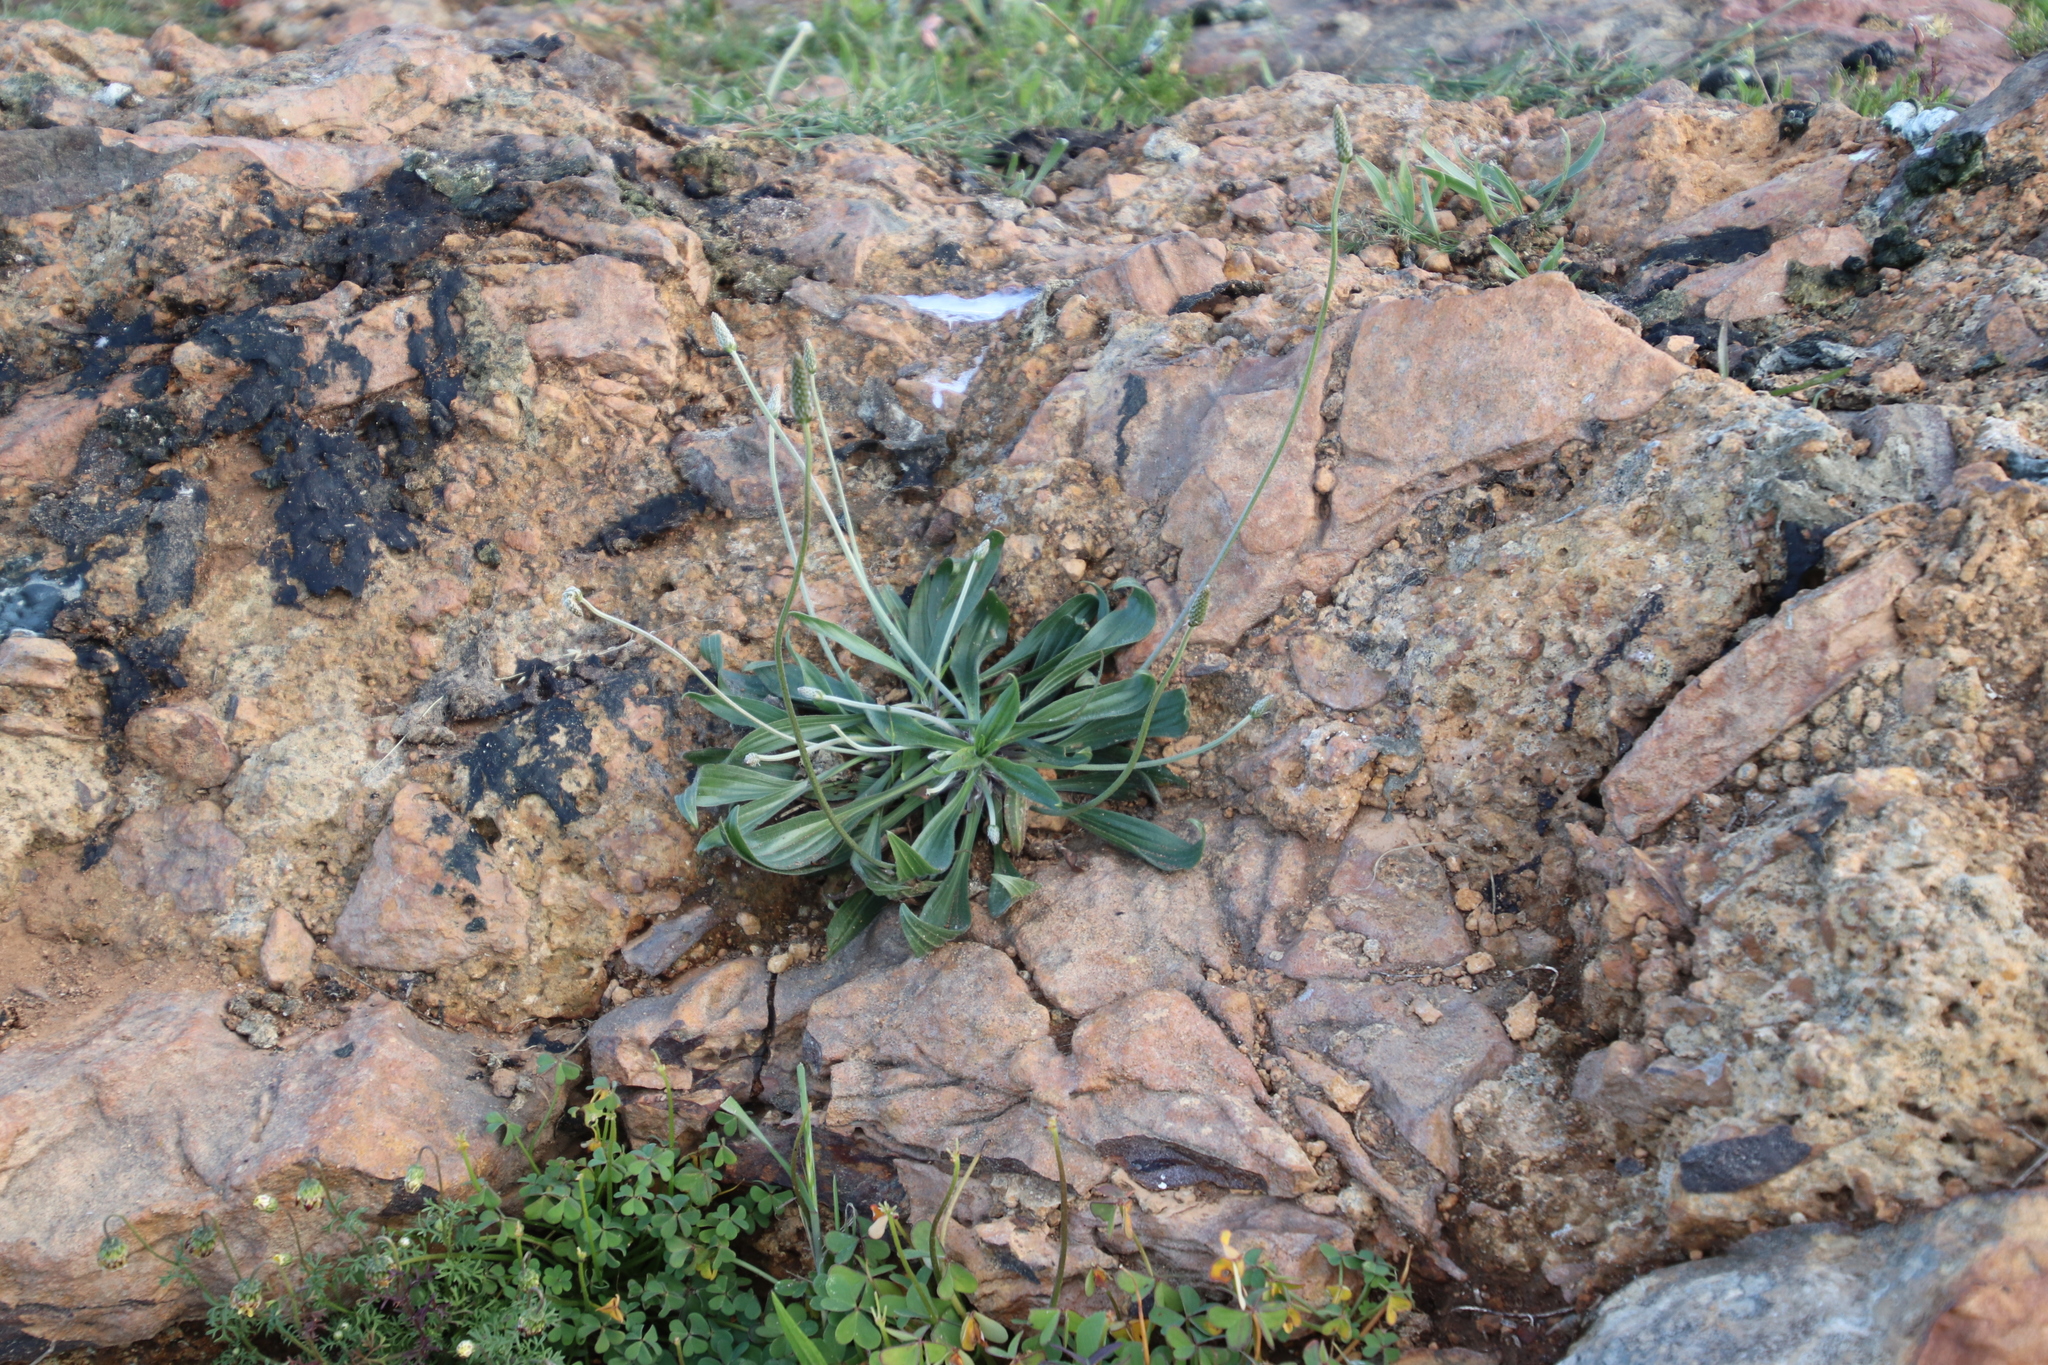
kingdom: Plantae
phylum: Tracheophyta
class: Magnoliopsida
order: Lamiales
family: Plantaginaceae
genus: Plantago
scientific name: Plantago lanceolata
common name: Ribwort plantain
